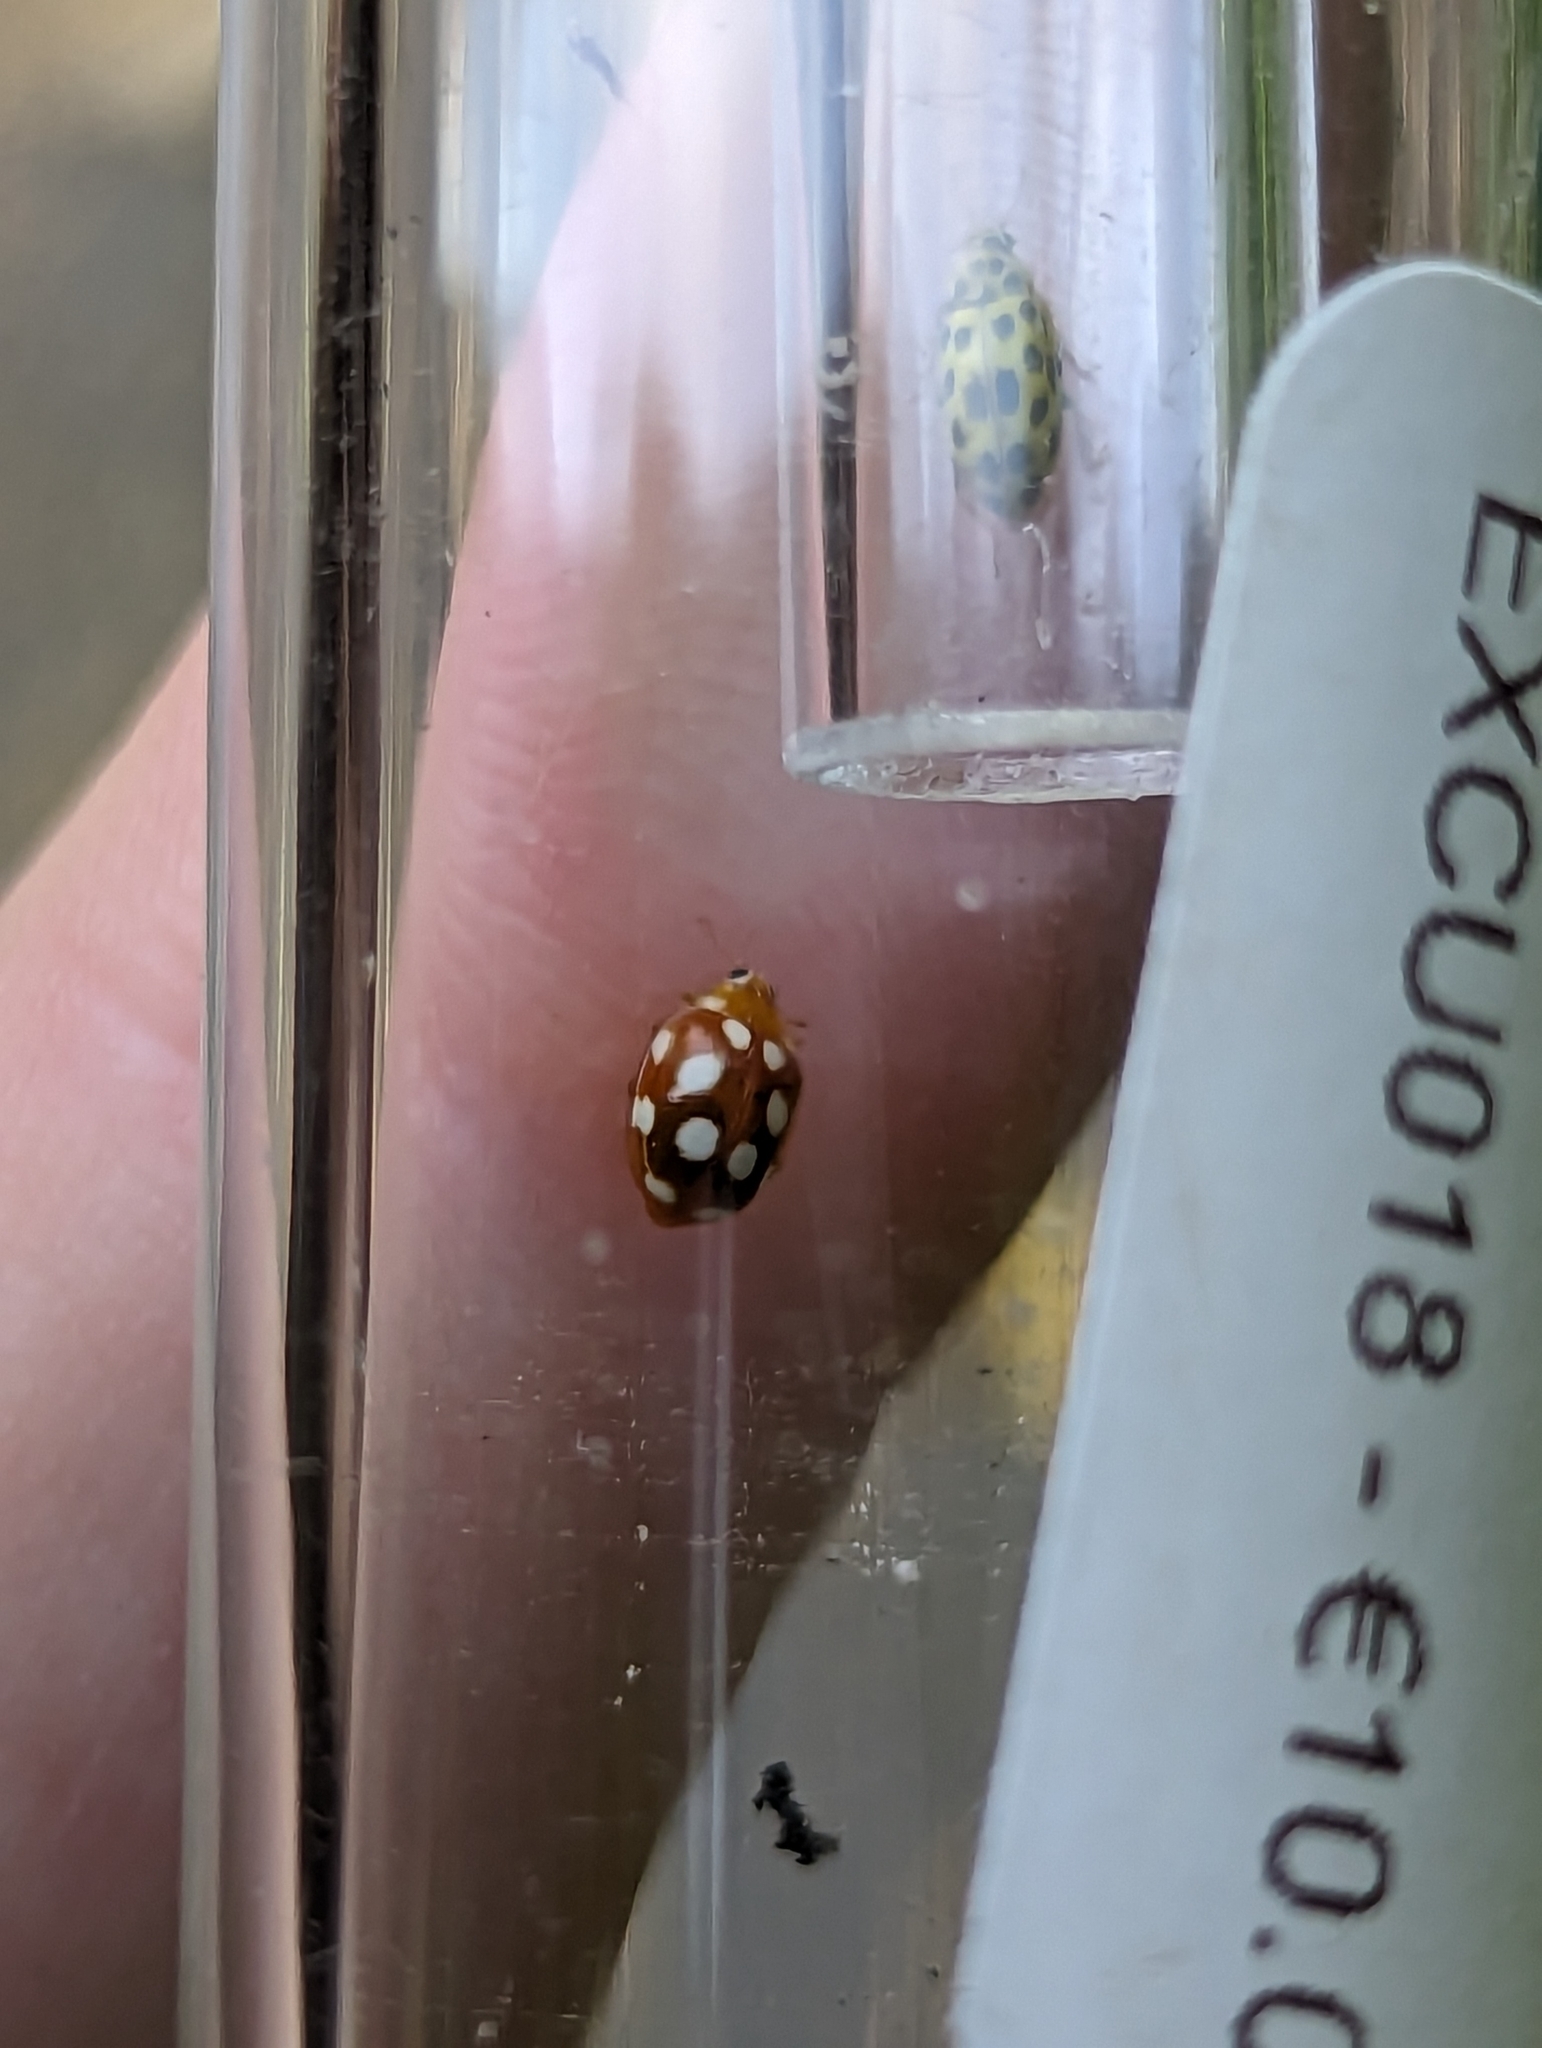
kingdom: Animalia
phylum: Arthropoda
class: Insecta
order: Coleoptera
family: Coccinellidae
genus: Vibidia
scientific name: Vibidia duodecimguttata
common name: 12-spot ladybird
